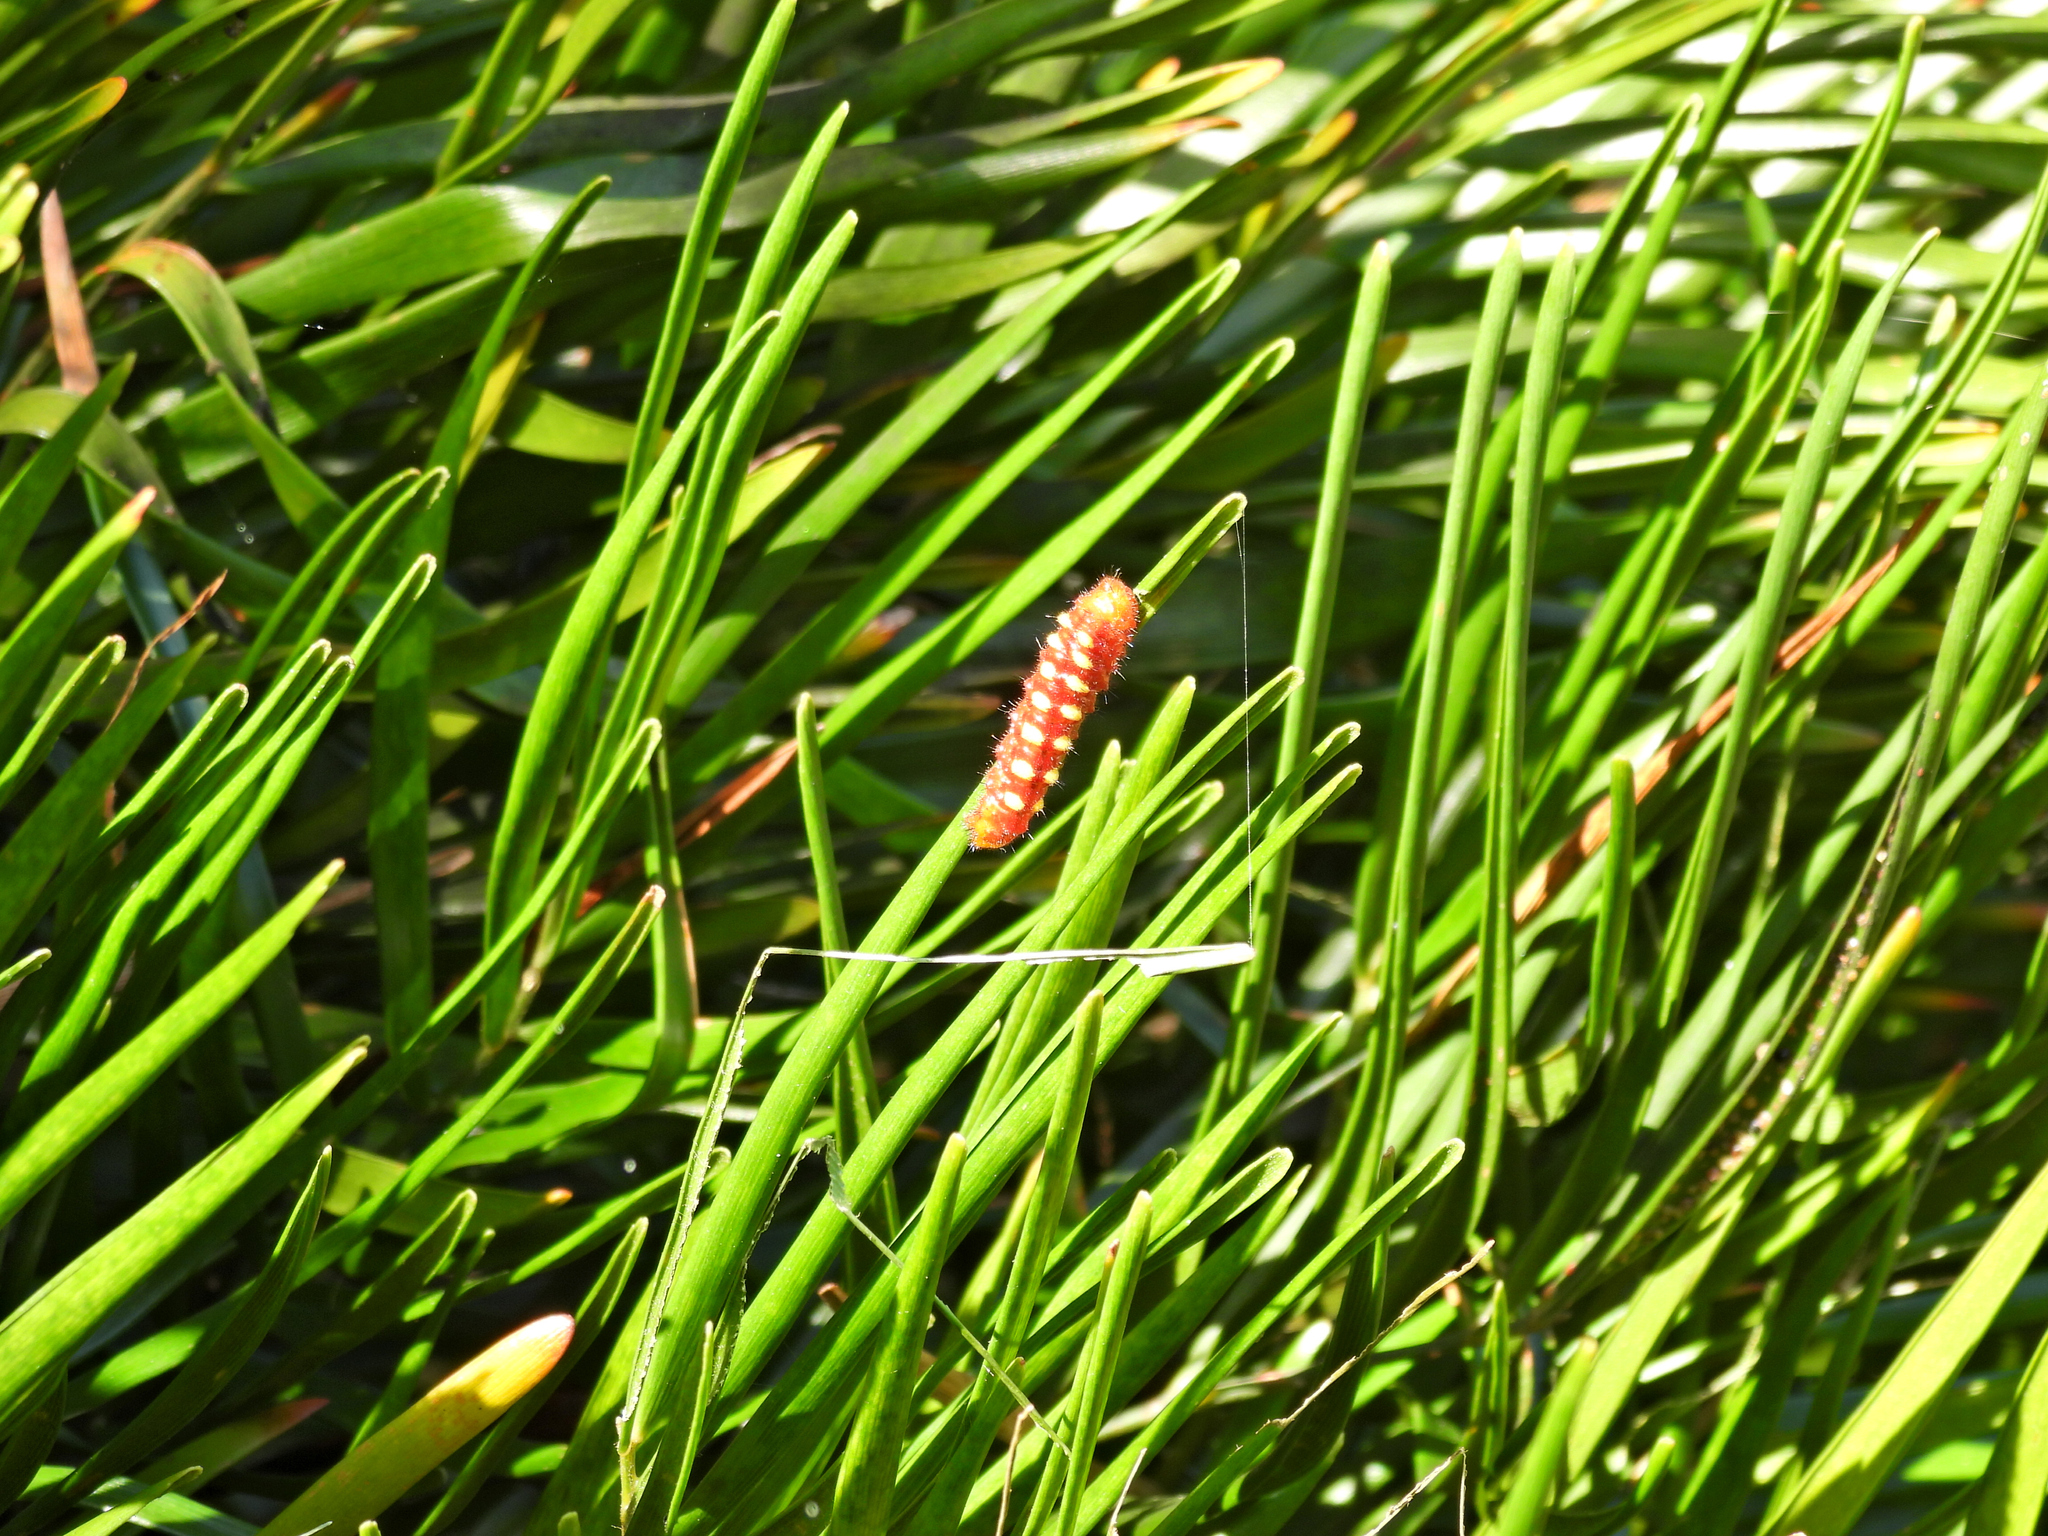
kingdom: Animalia
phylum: Arthropoda
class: Insecta
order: Lepidoptera
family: Lycaenidae
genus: Eumaeus
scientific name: Eumaeus atala
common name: Atala
